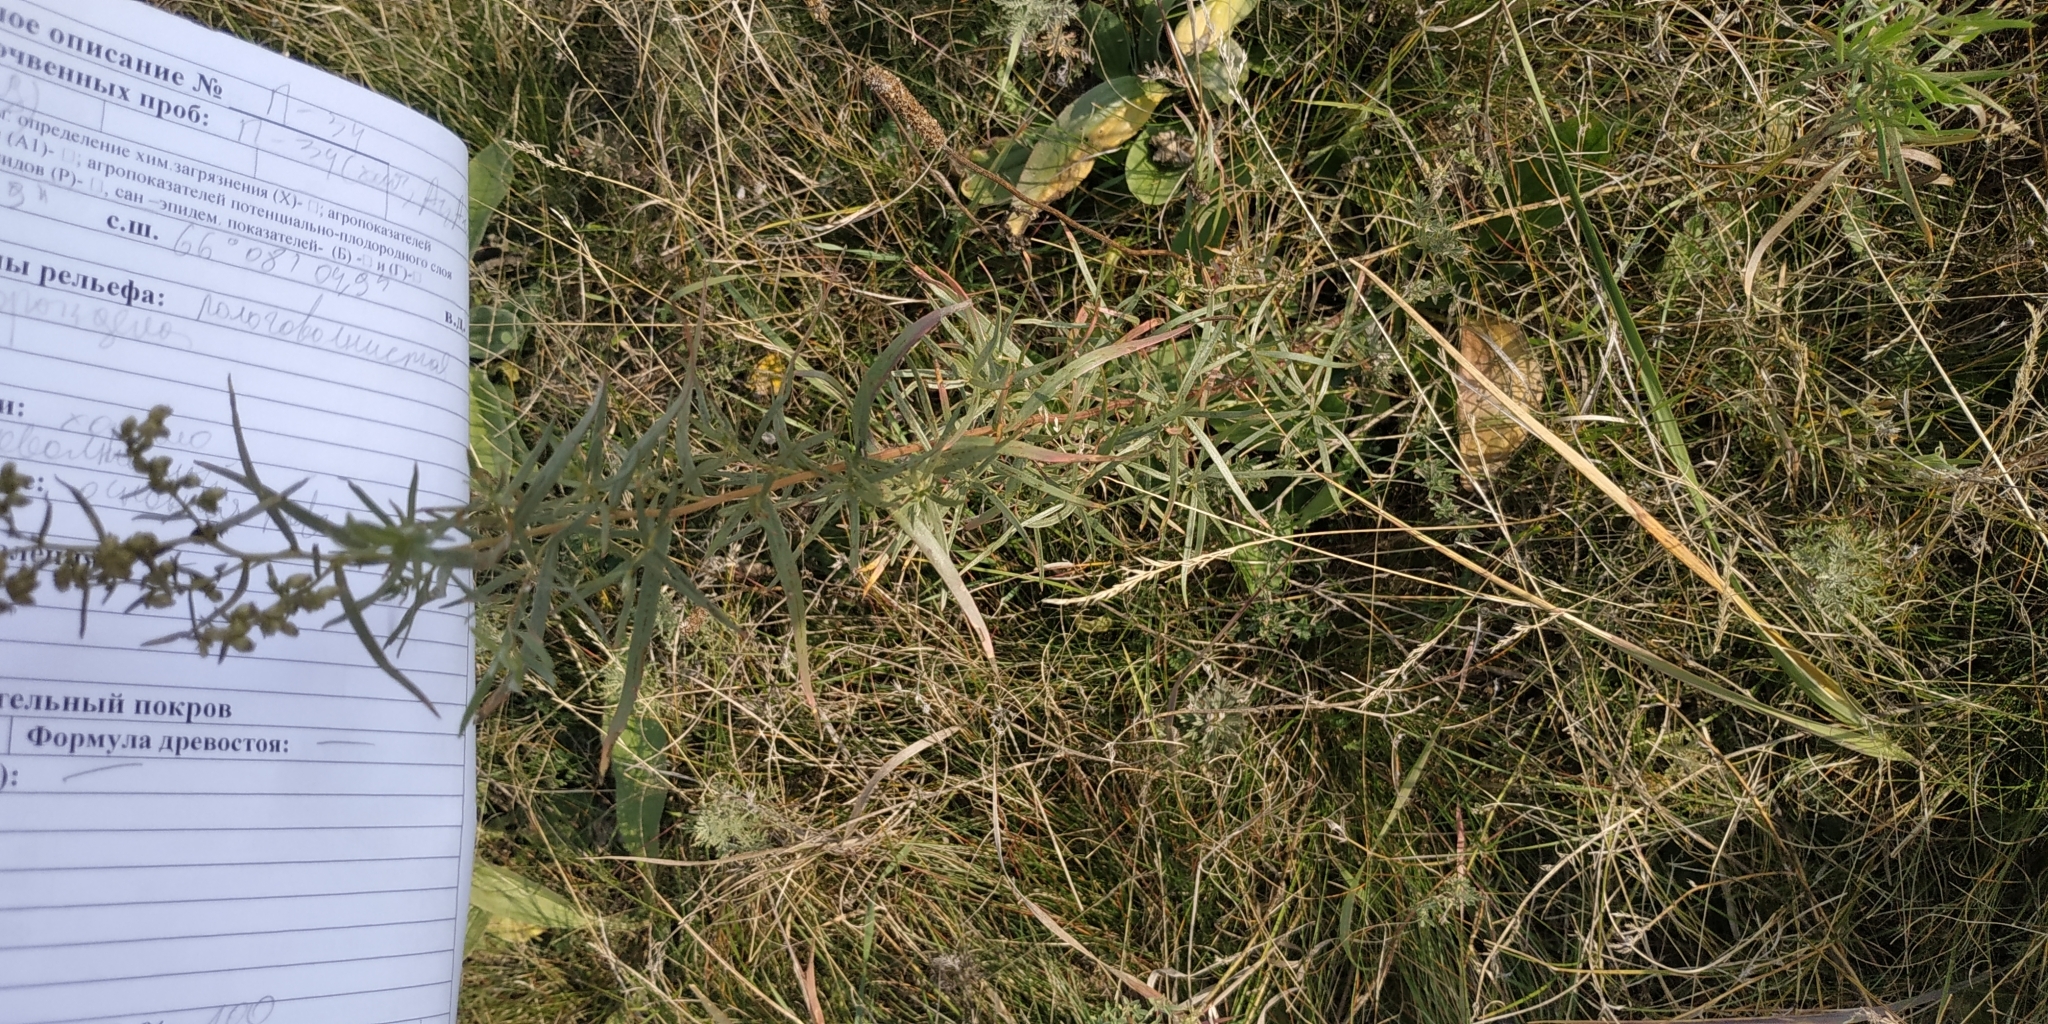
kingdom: Plantae
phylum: Tracheophyta
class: Magnoliopsida
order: Asterales
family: Asteraceae
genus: Artemisia
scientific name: Artemisia dracunculus
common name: Tarragon
